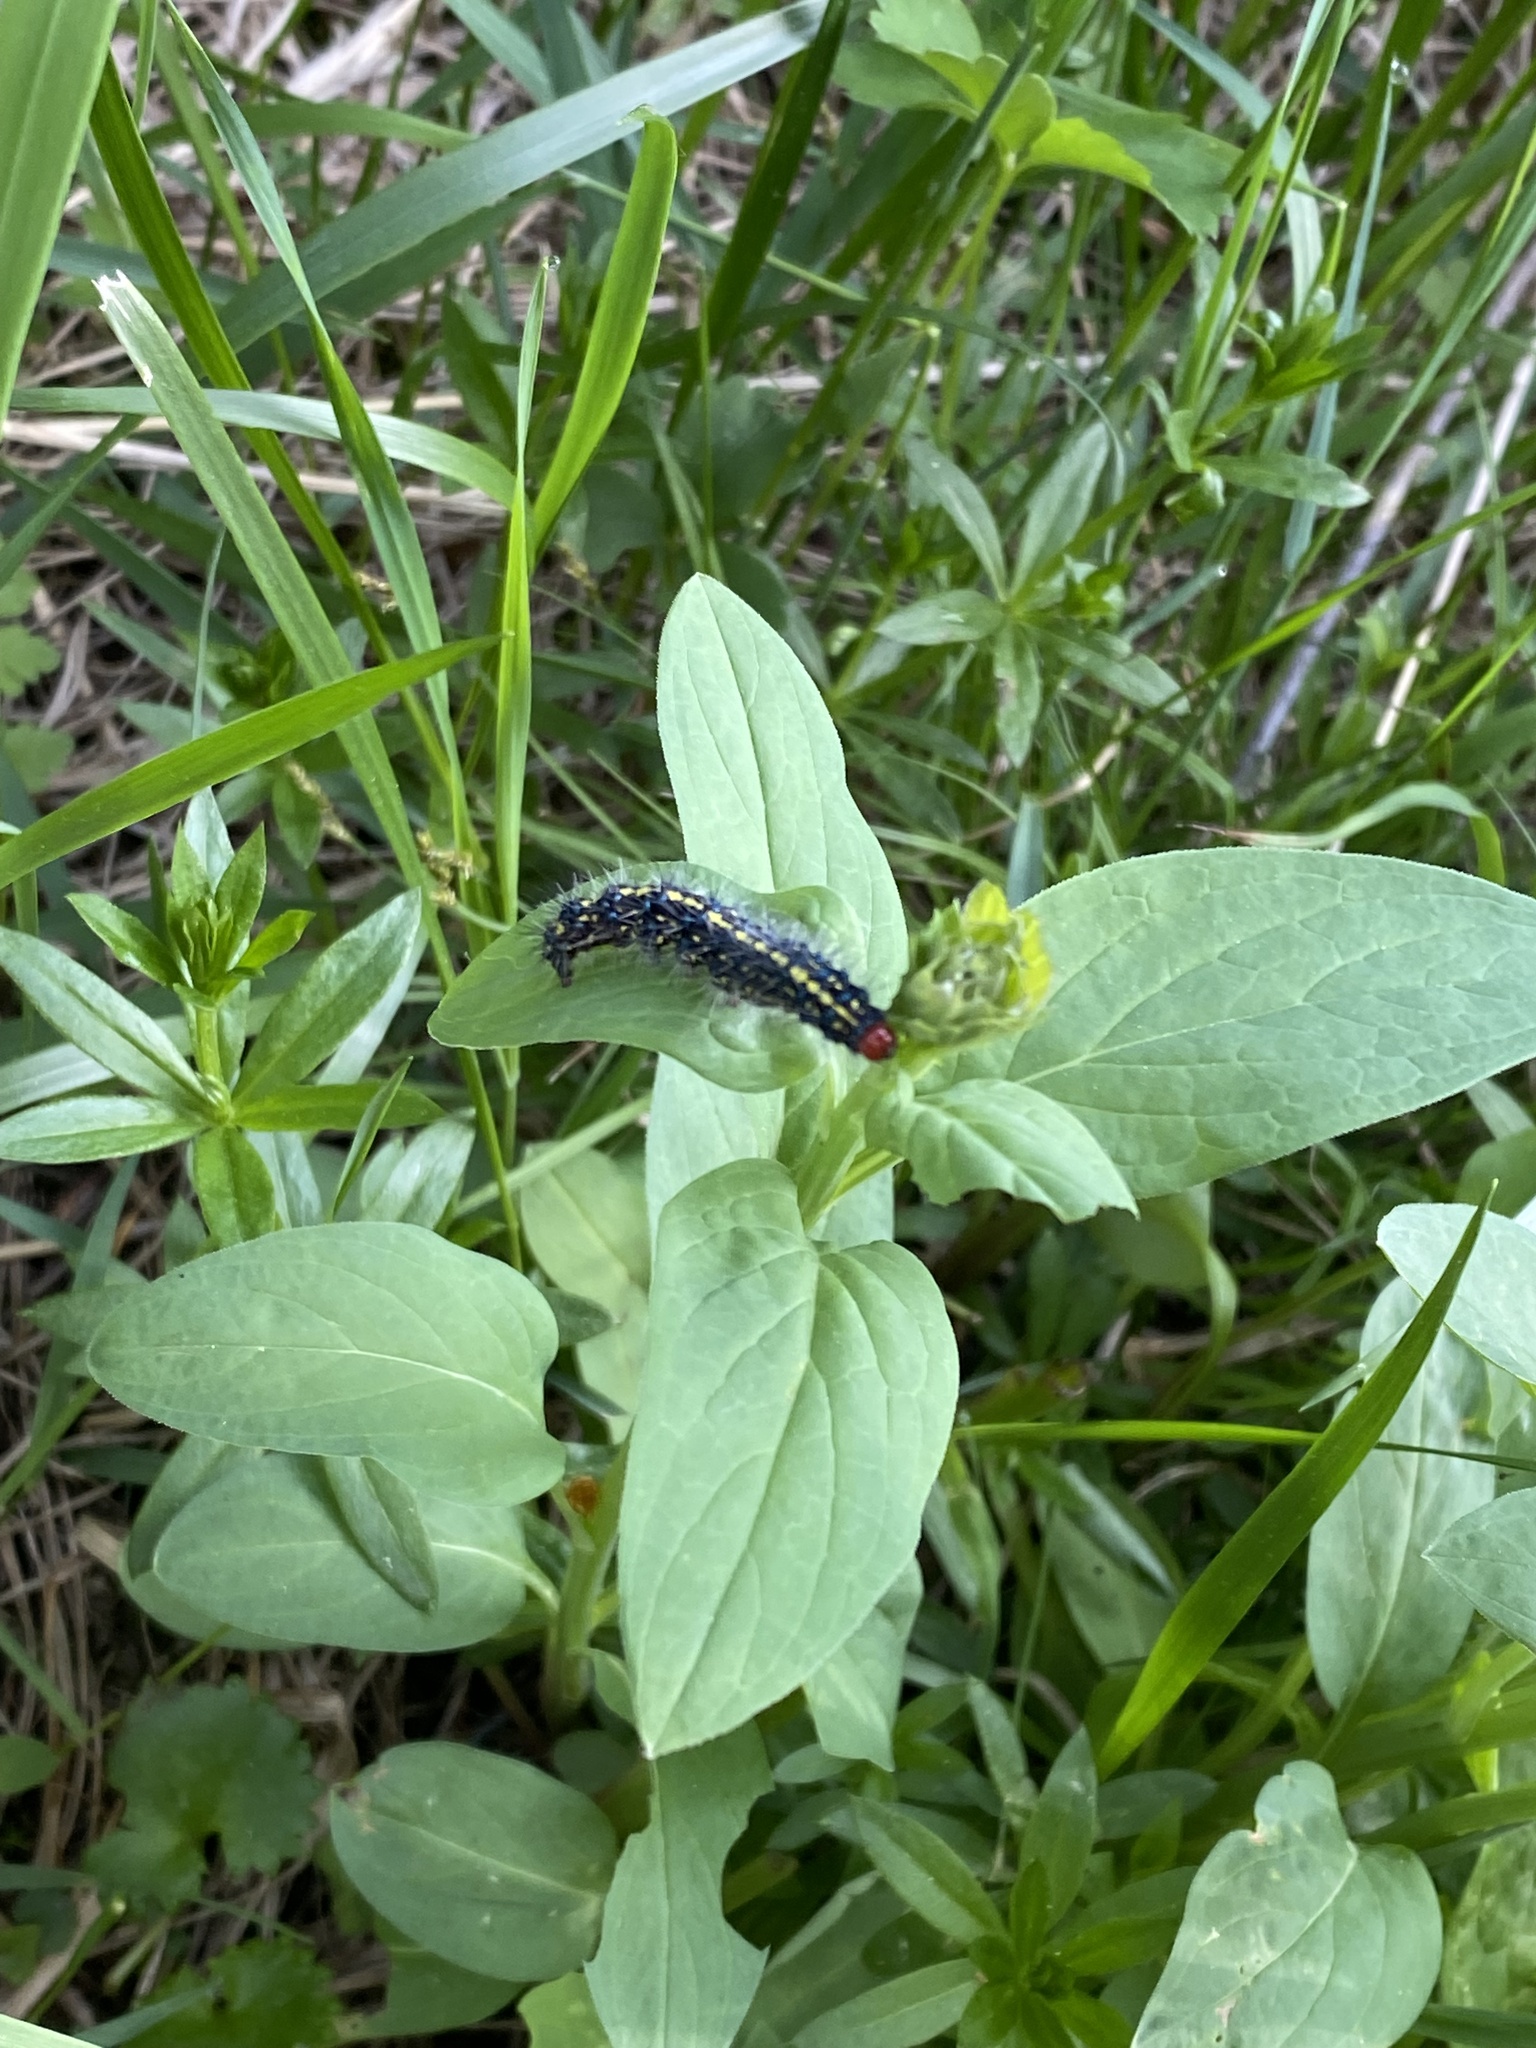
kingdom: Animalia
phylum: Arthropoda
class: Insecta
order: Lepidoptera
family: Erebidae
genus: Gnophaela
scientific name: Gnophaela vermiculata
